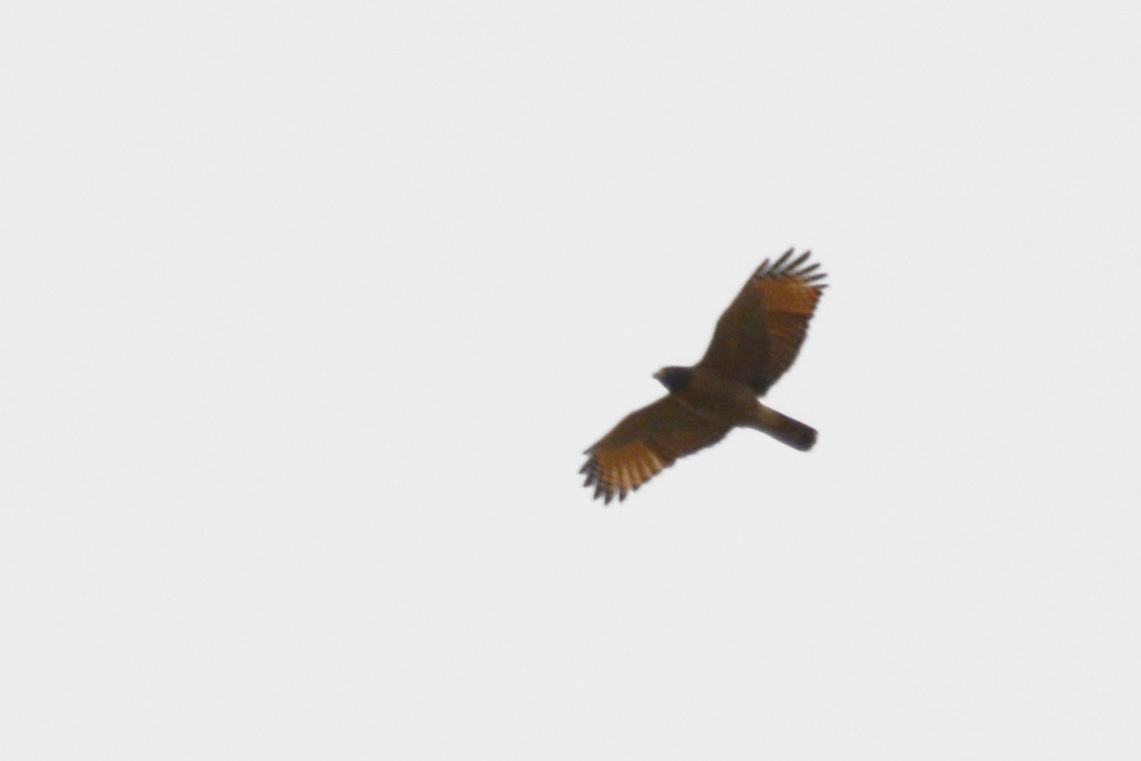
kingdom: Animalia
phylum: Chordata
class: Aves
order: Accipitriformes
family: Accipitridae
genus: Rupornis
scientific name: Rupornis magnirostris
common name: Roadside hawk
